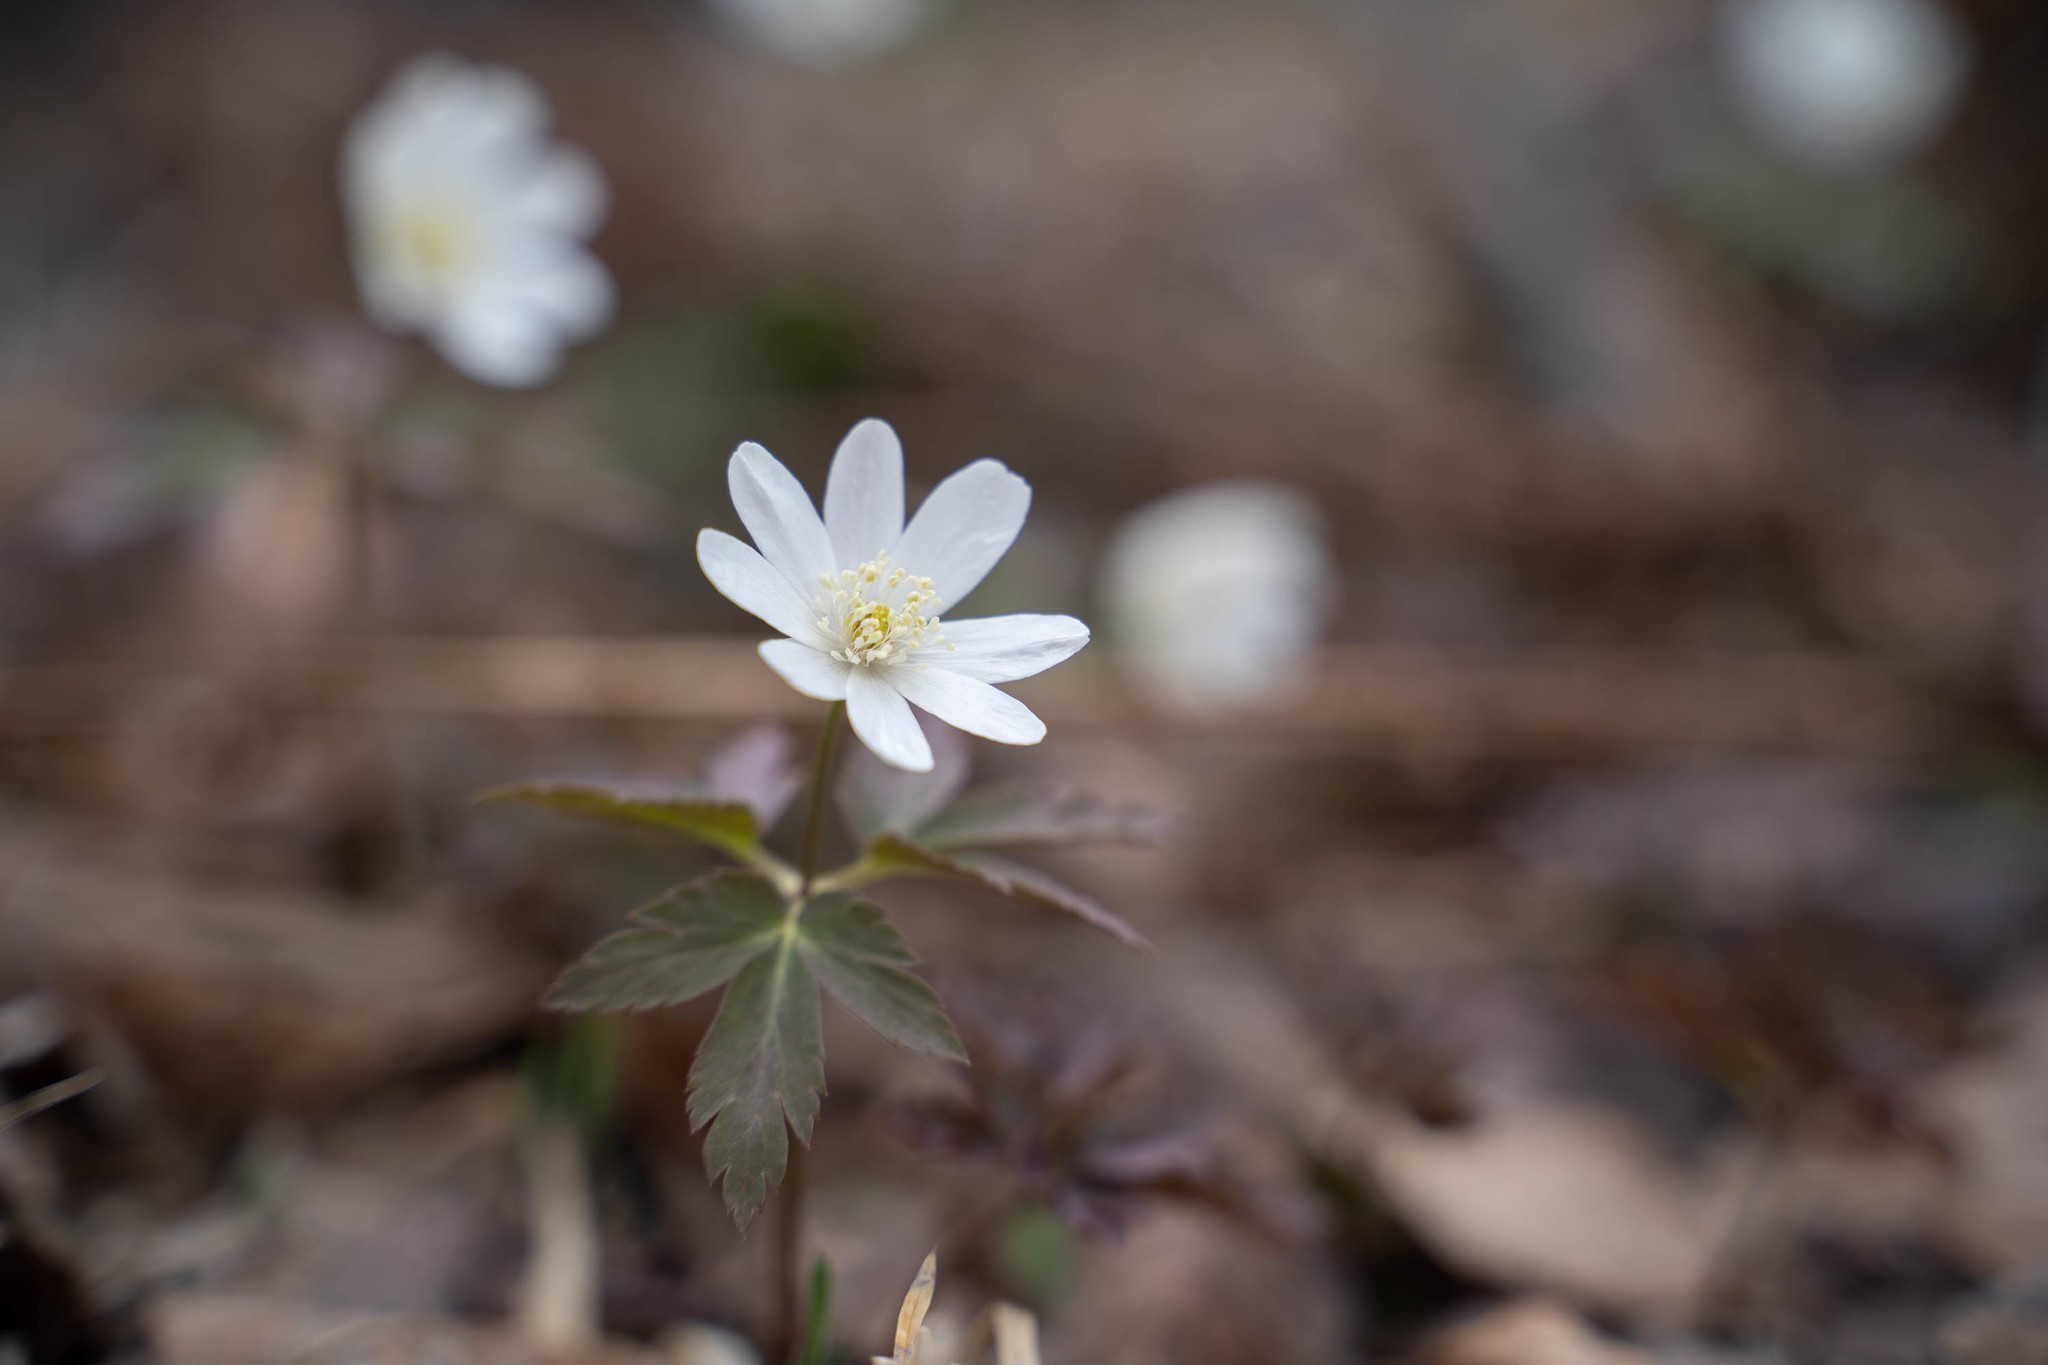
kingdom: Plantae
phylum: Tracheophyta
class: Magnoliopsida
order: Ranunculales
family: Ranunculaceae
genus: Anemone
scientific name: Anemone altaica
